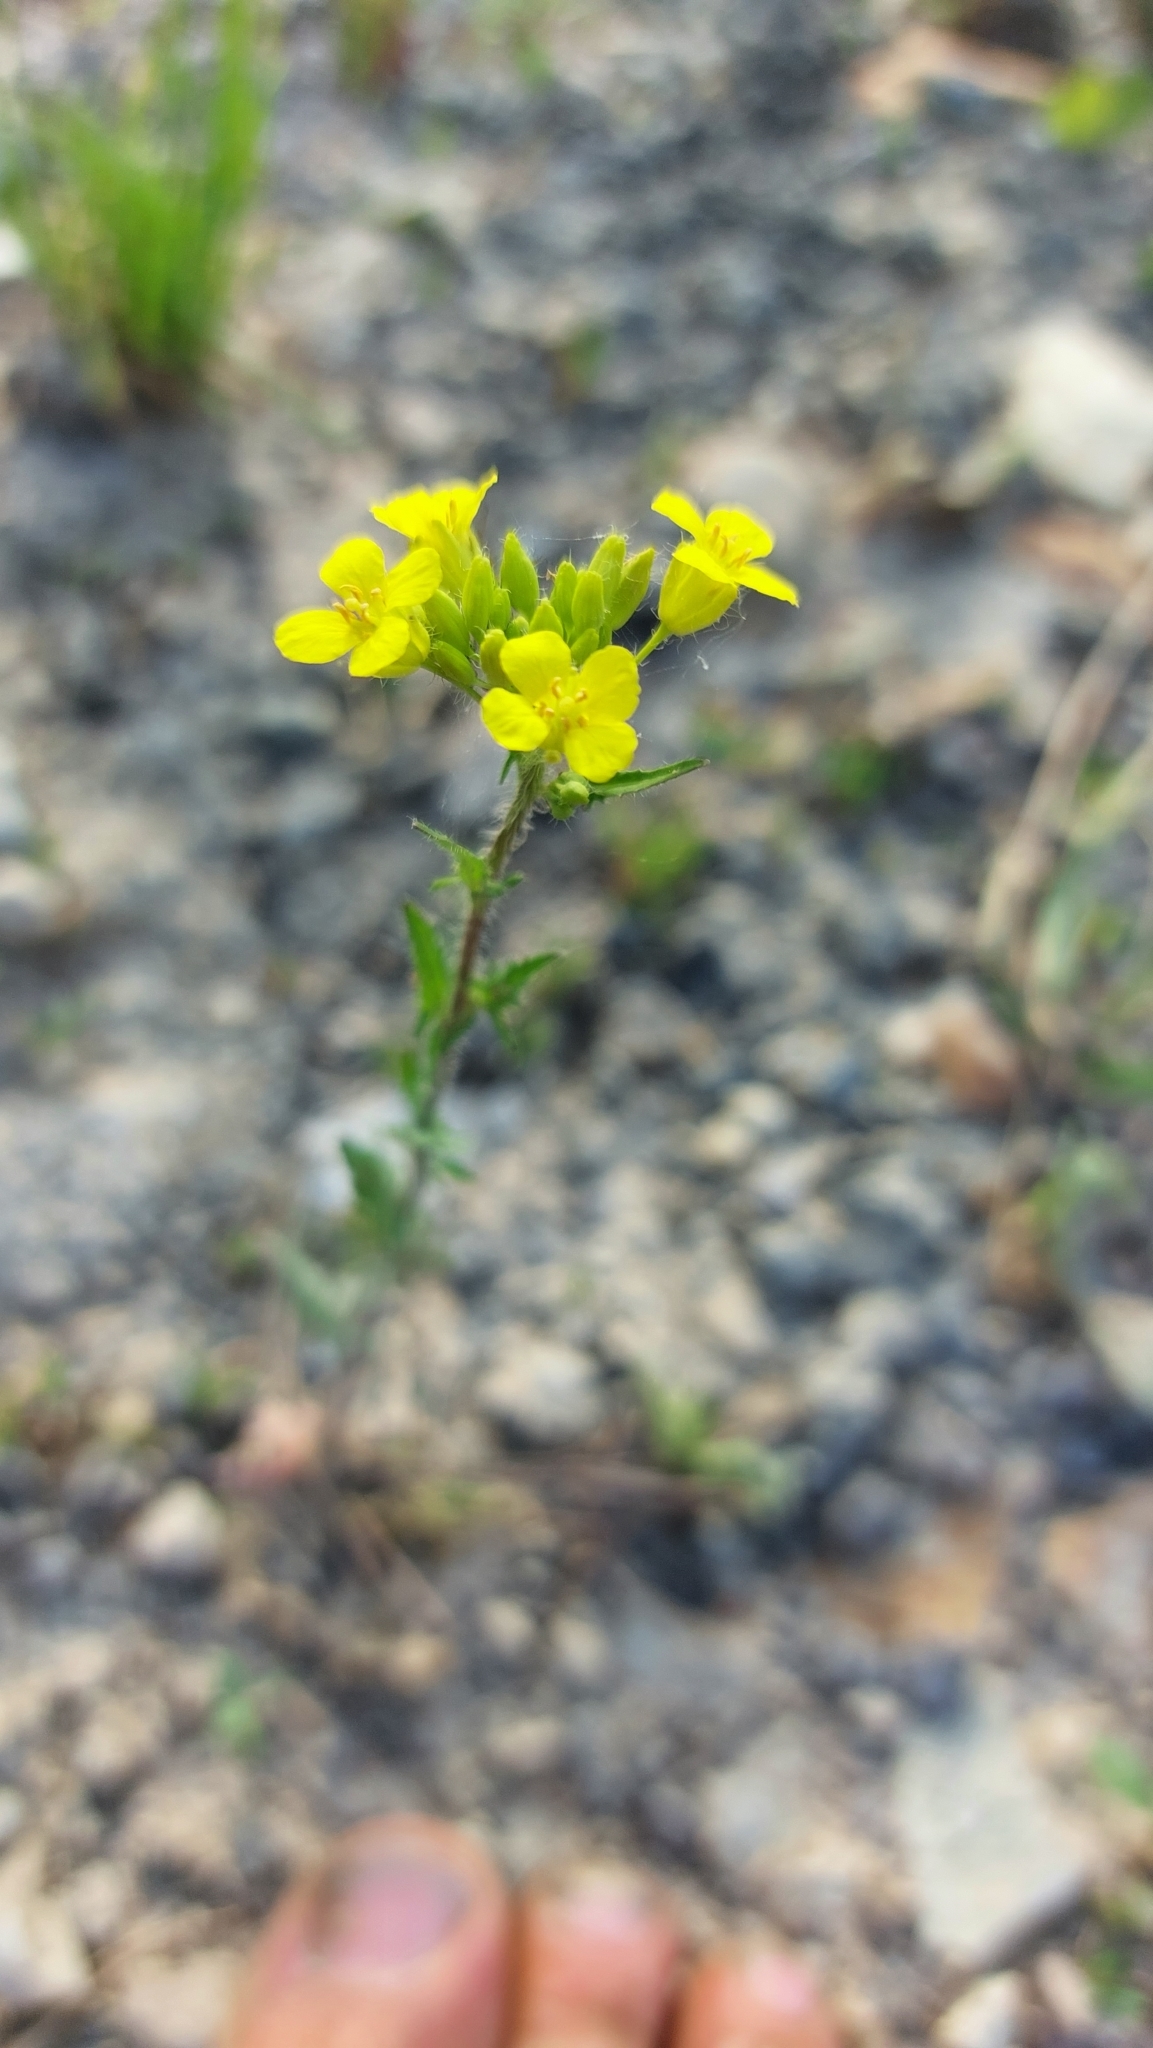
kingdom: Plantae
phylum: Tracheophyta
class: Magnoliopsida
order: Brassicales
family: Brassicaceae
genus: Sisymbrium
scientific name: Sisymbrium loeselii
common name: False london-rocket
